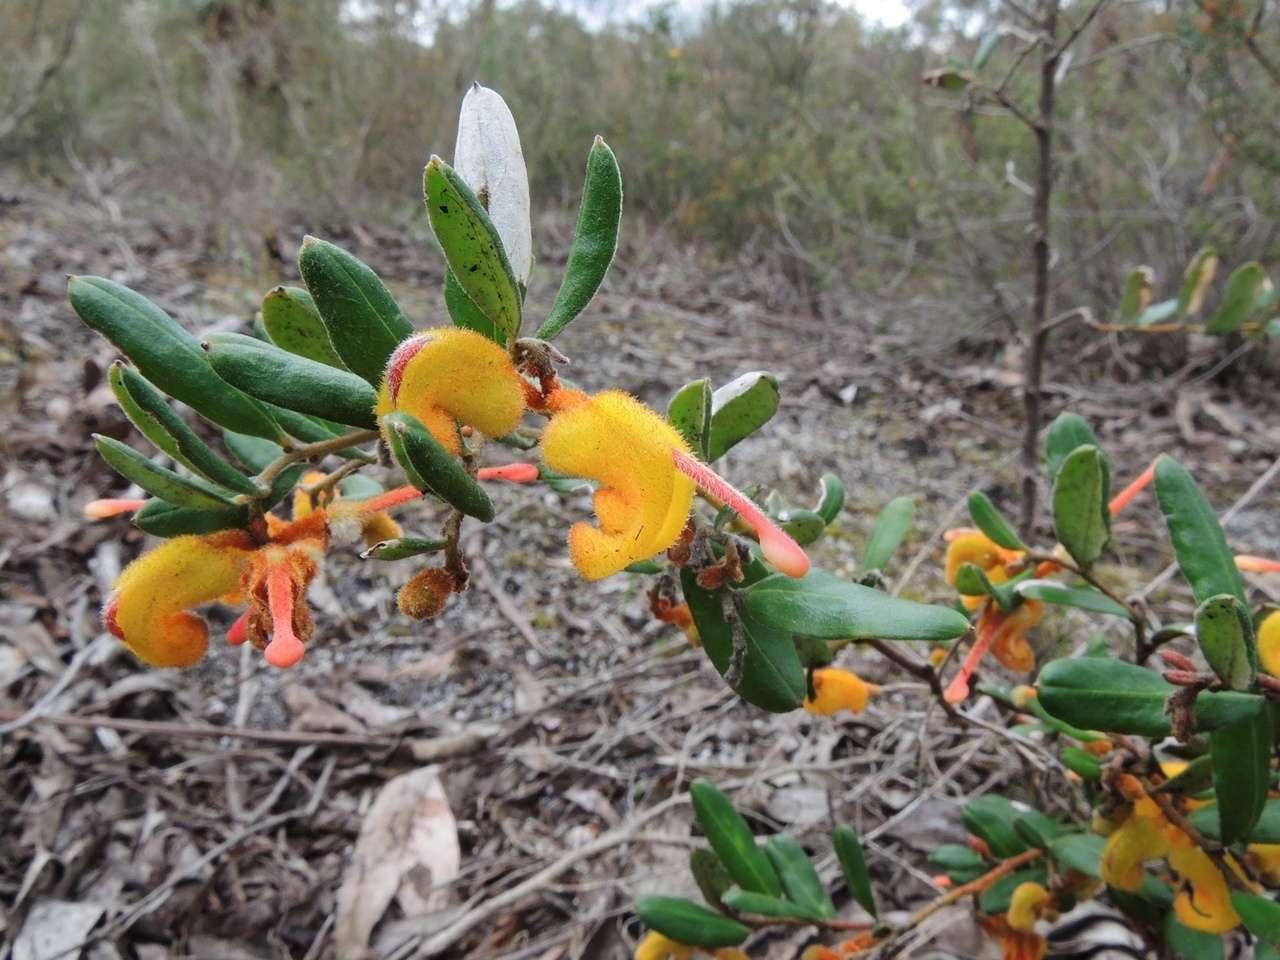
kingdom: Plantae
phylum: Tracheophyta
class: Magnoliopsida
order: Proteales
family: Proteaceae
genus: Grevillea
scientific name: Grevillea chrysophaea
